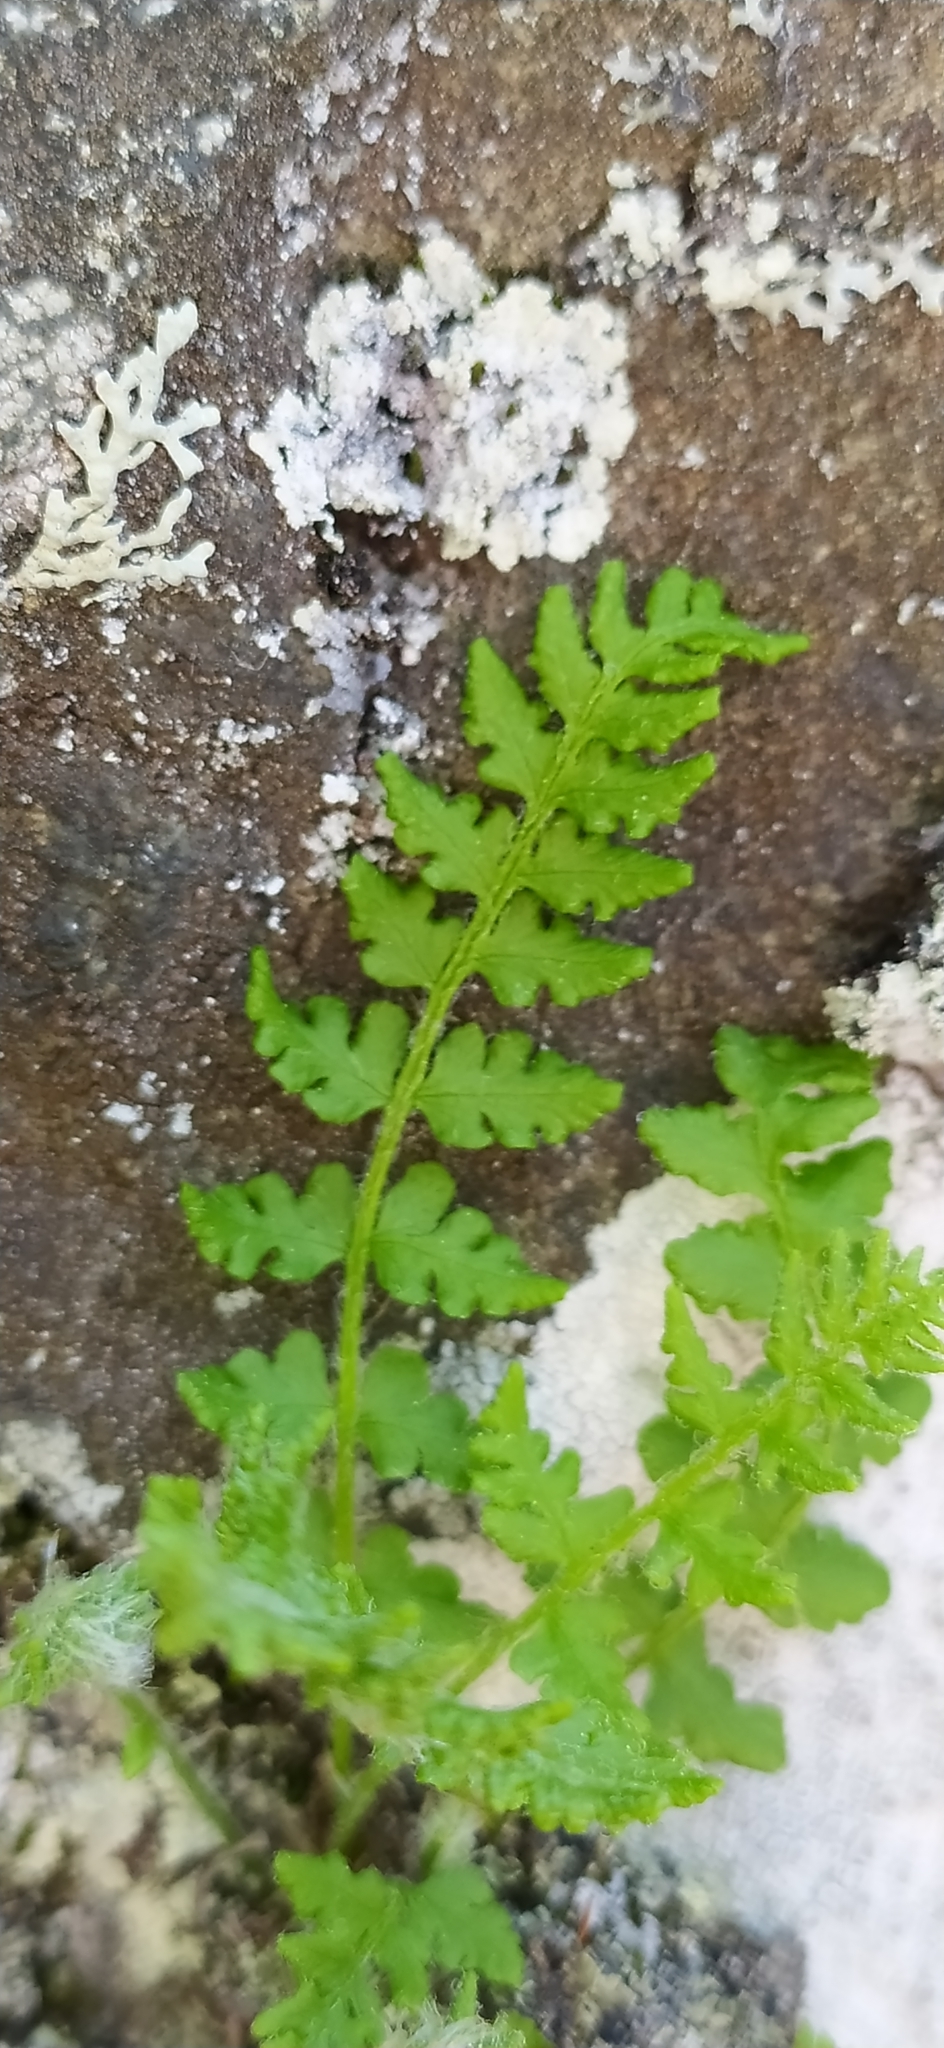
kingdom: Plantae
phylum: Tracheophyta
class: Polypodiopsida
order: Polypodiales
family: Woodsiaceae
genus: Woodsia
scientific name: Woodsia ilvensis
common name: Fragrant woodsia
